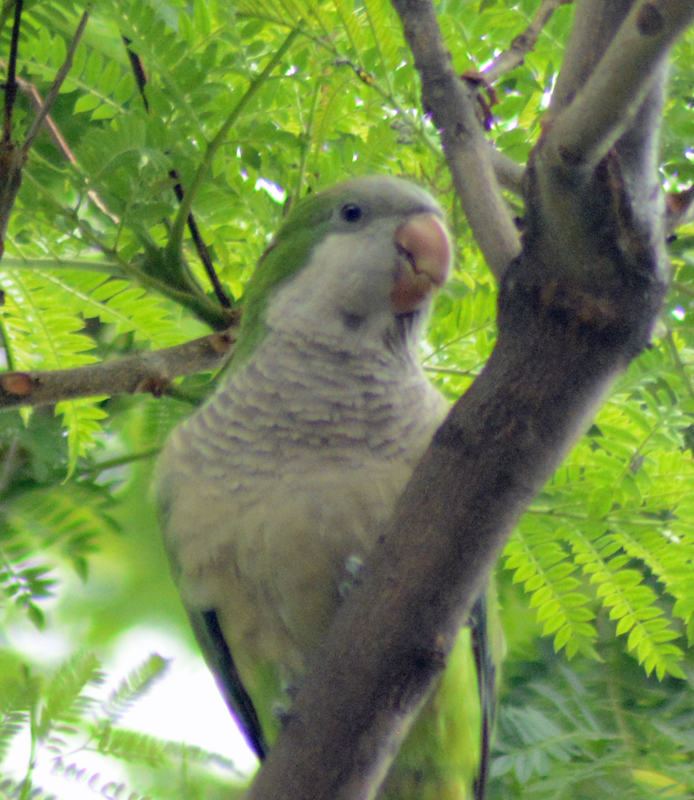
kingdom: Animalia
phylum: Chordata
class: Aves
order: Psittaciformes
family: Psittacidae
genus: Myiopsitta
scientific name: Myiopsitta monachus
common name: Monk parakeet
